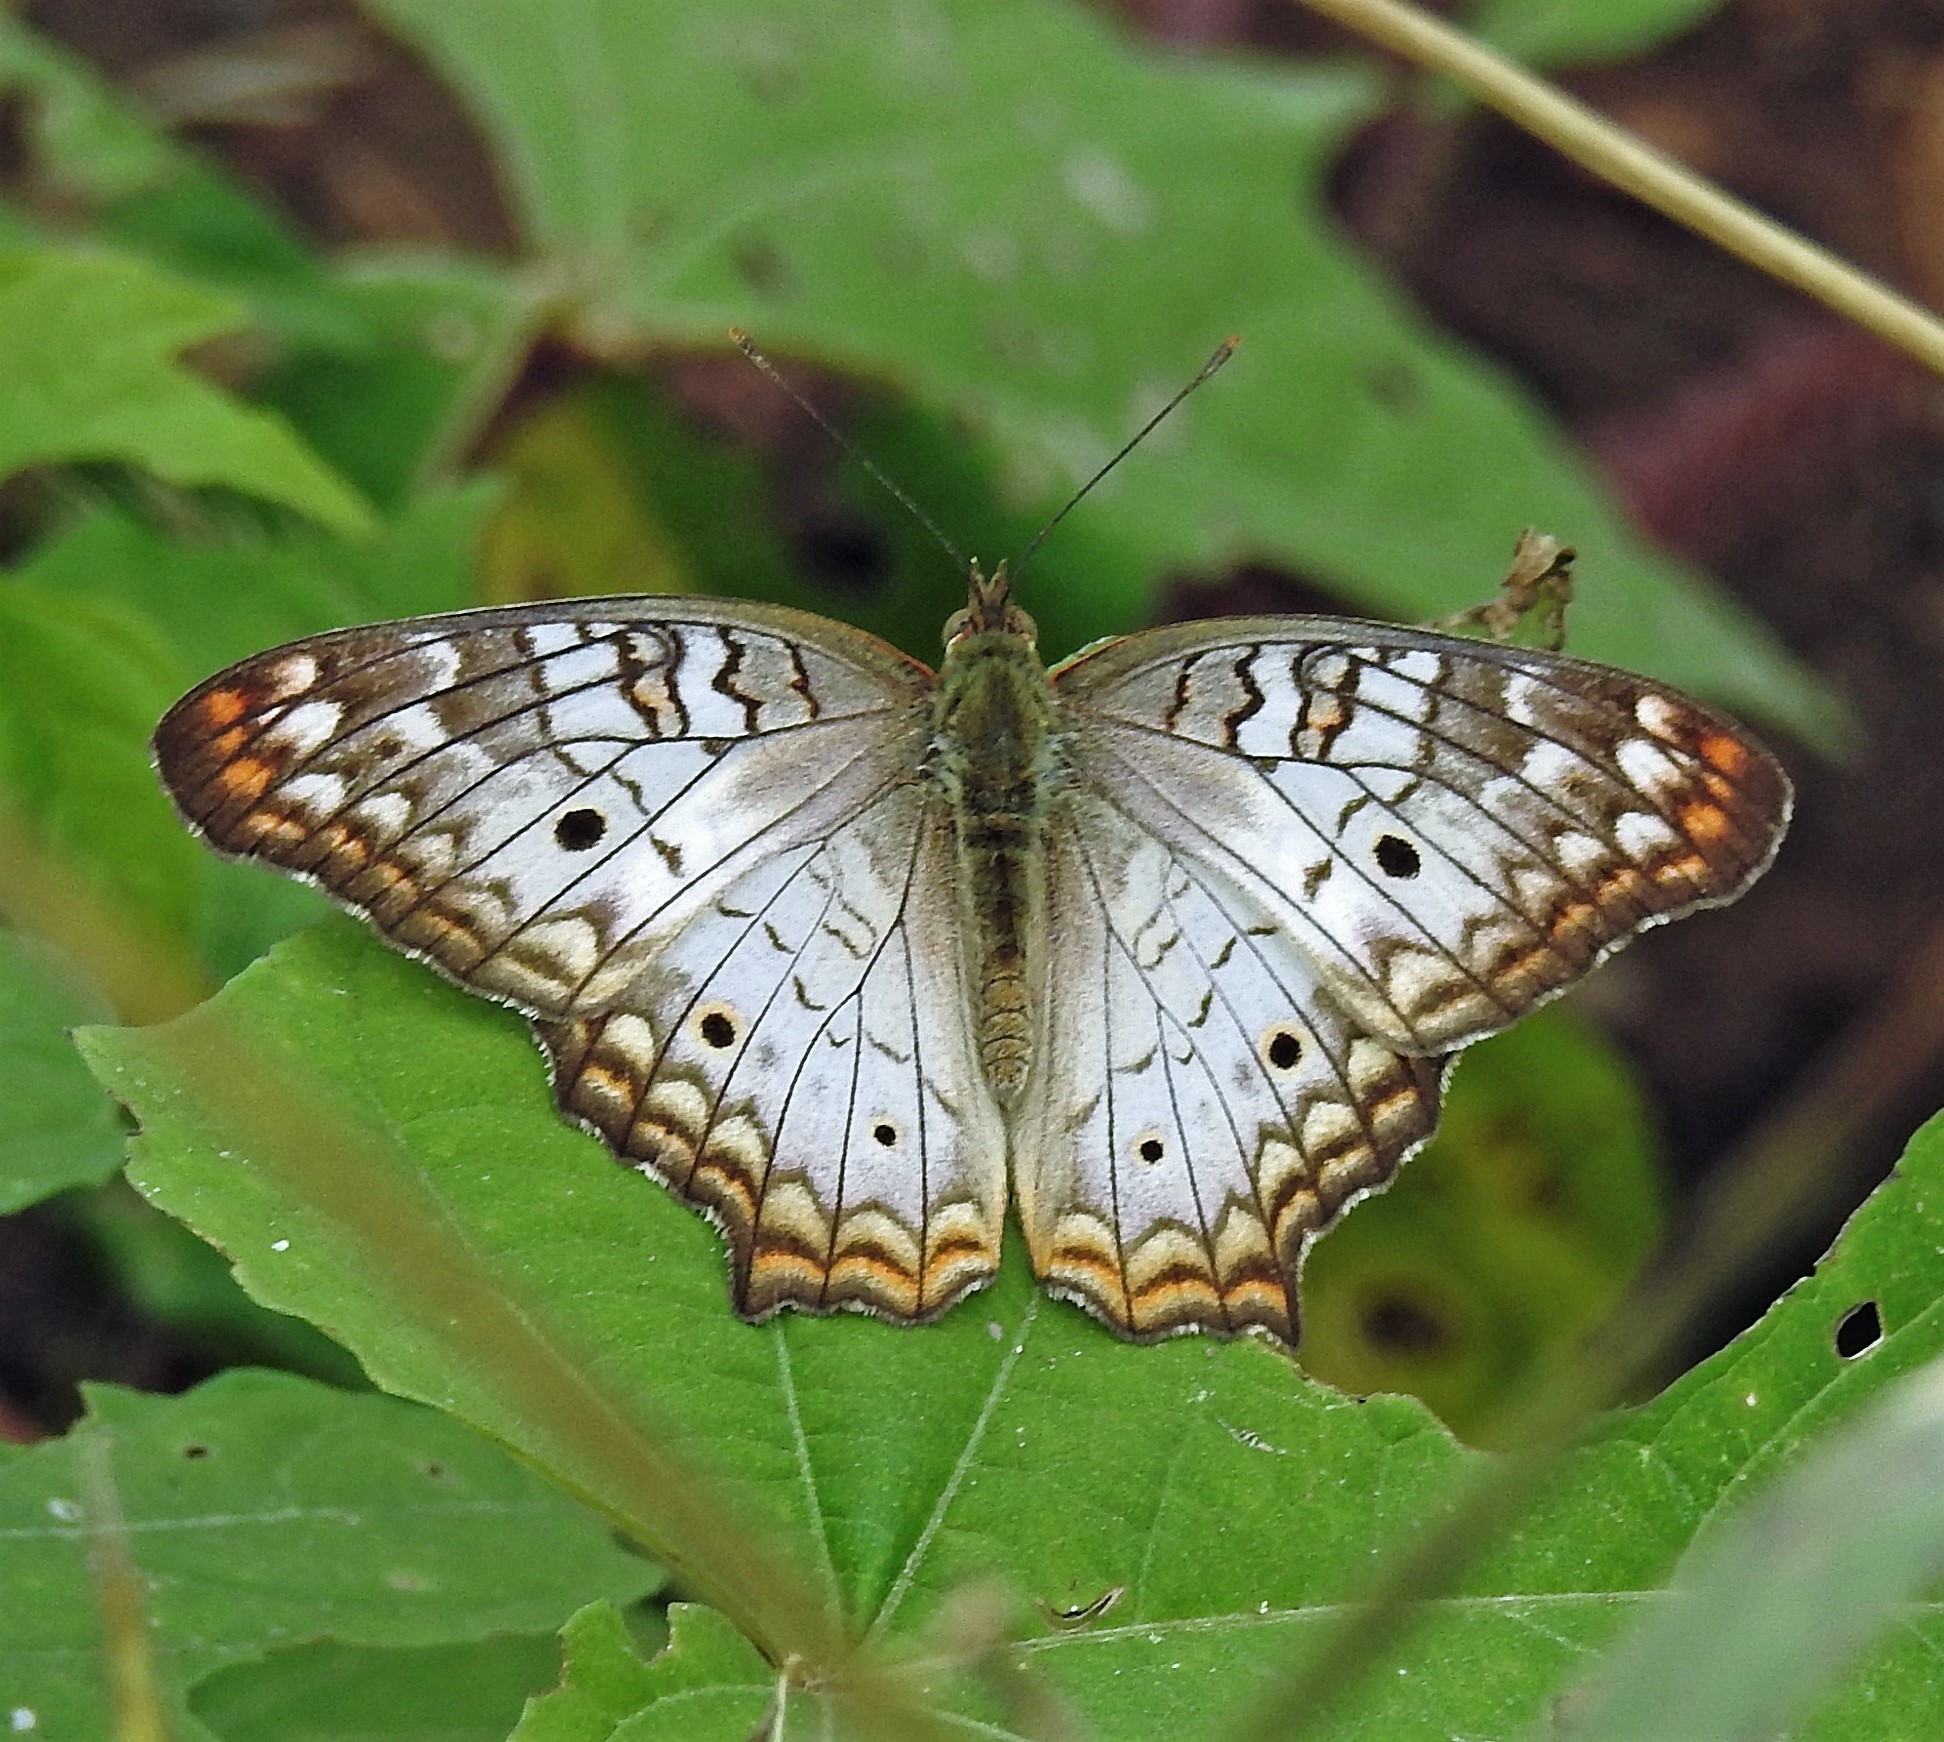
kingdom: Animalia
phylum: Arthropoda
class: Insecta
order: Lepidoptera
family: Nymphalidae
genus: Anartia
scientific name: Anartia jatrophae
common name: White peacock
